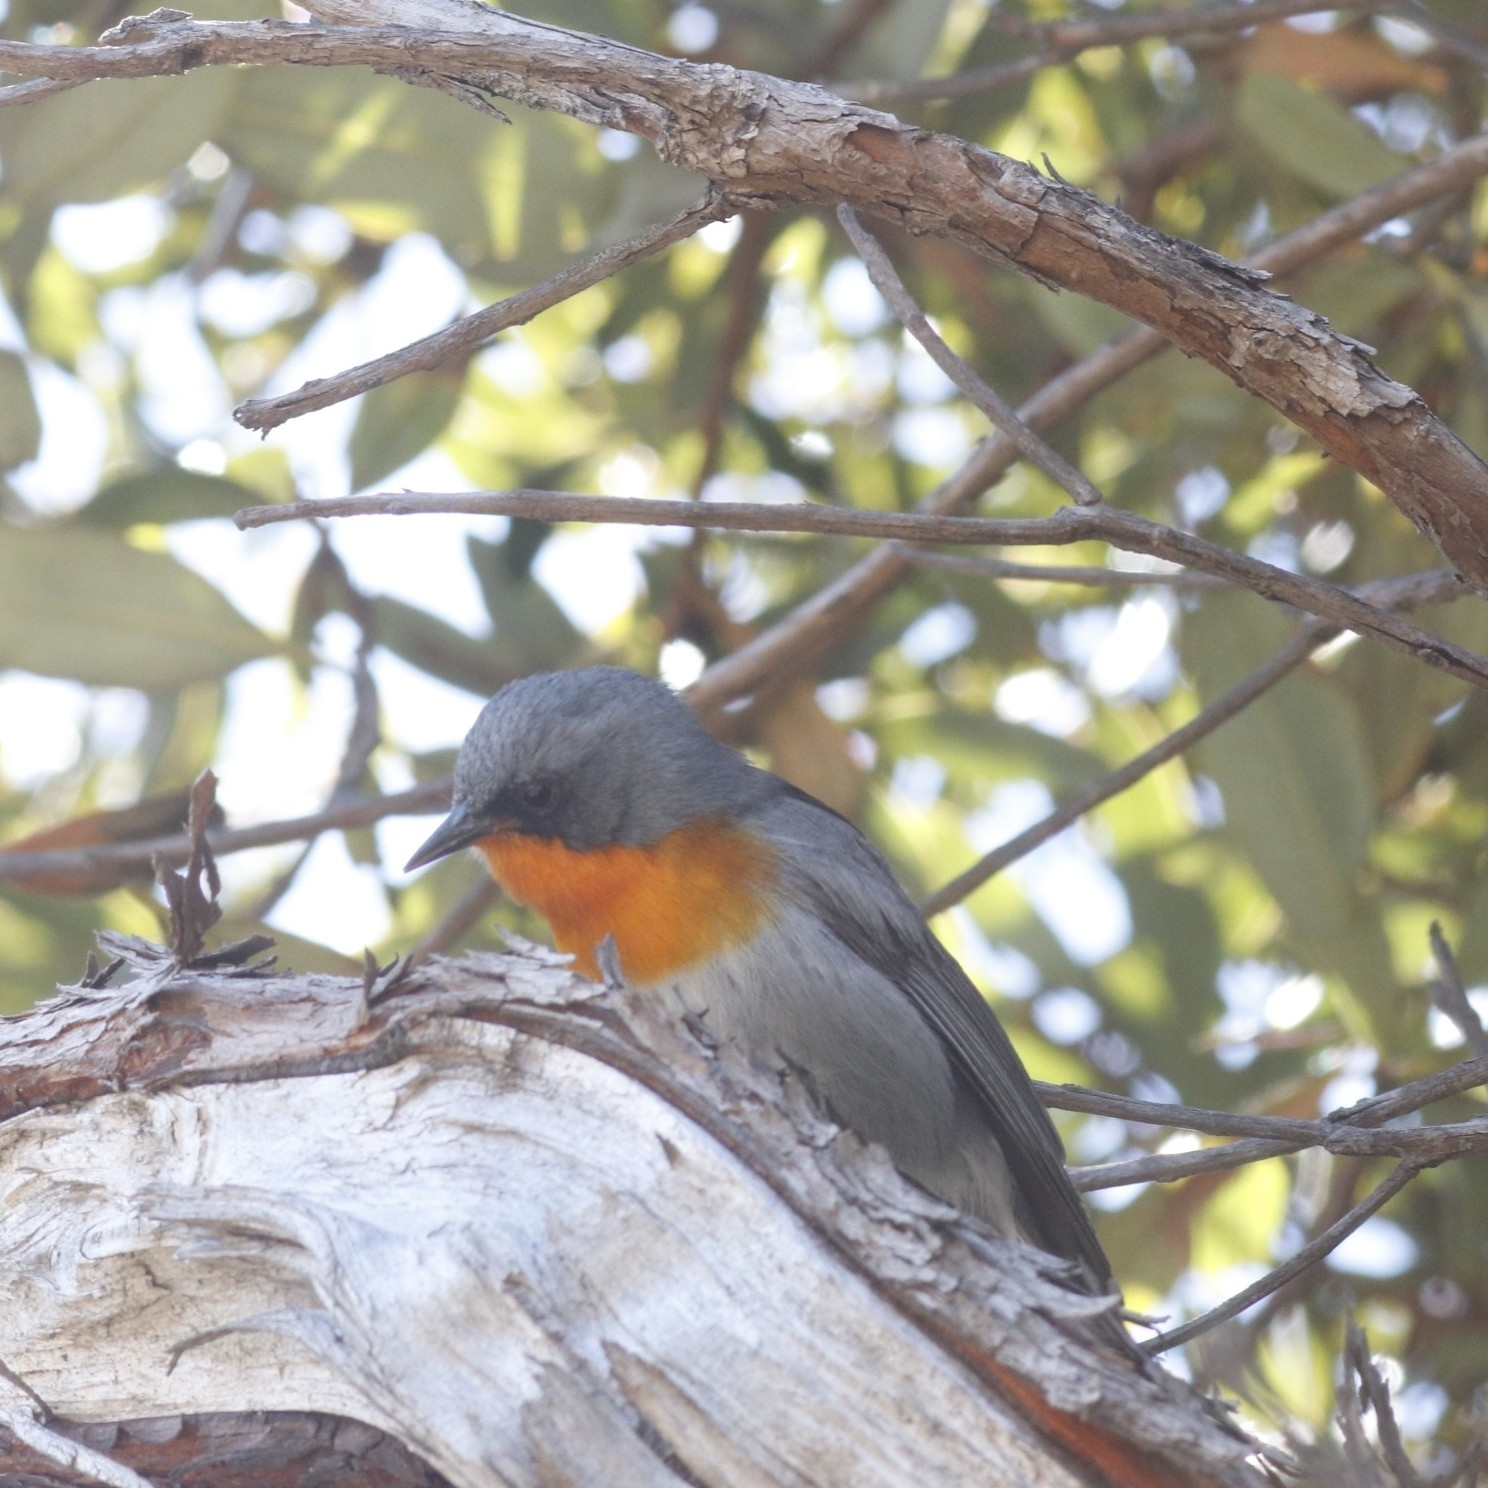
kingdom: Animalia
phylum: Chordata
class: Aves
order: Passeriformes
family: Parulidae
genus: Oreothlypis
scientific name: Oreothlypis gutturalis
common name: Flame-throated warbler
